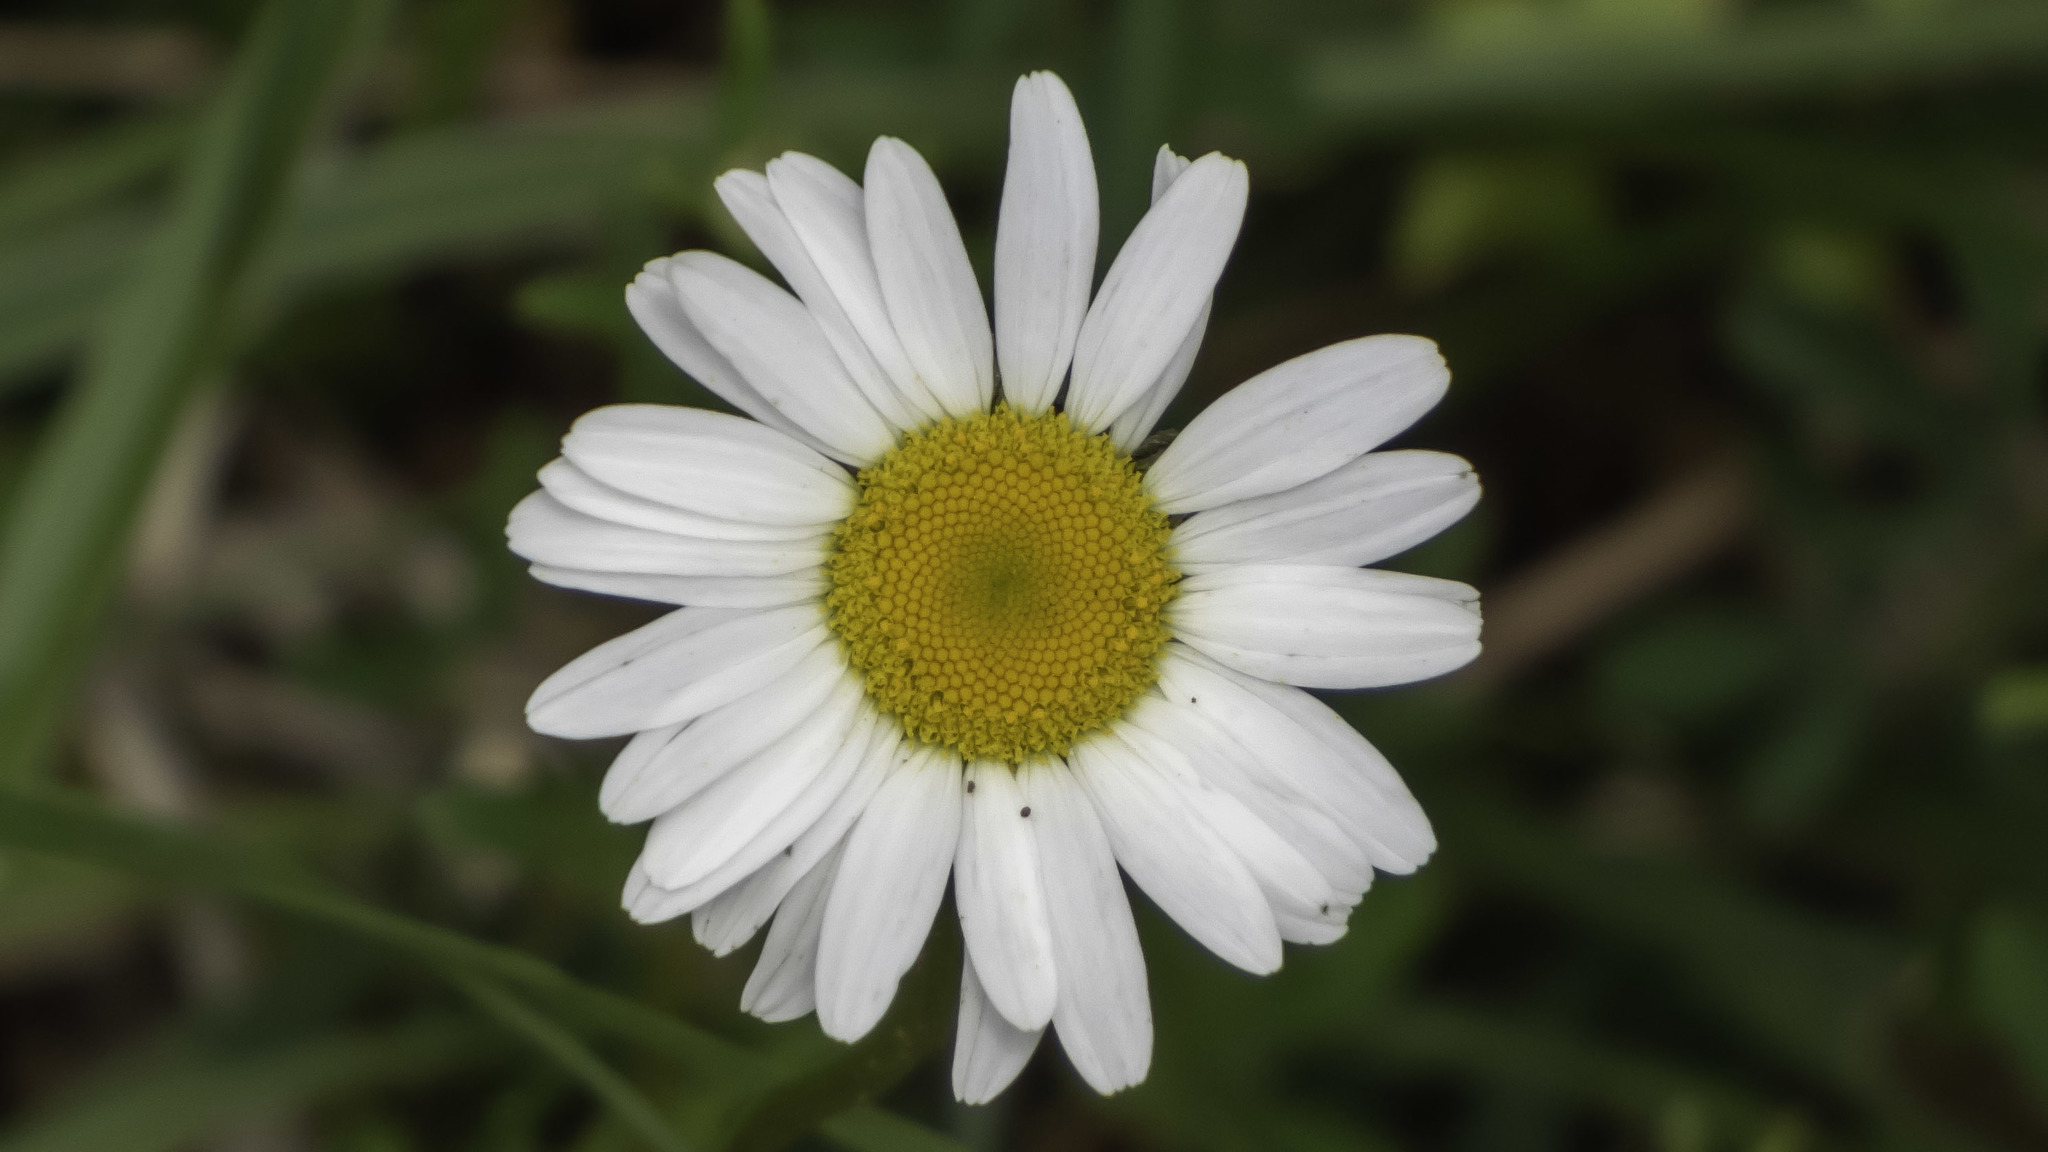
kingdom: Plantae
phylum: Tracheophyta
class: Magnoliopsida
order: Asterales
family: Asteraceae
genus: Leucanthemum
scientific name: Leucanthemum vulgare
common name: Oxeye daisy
